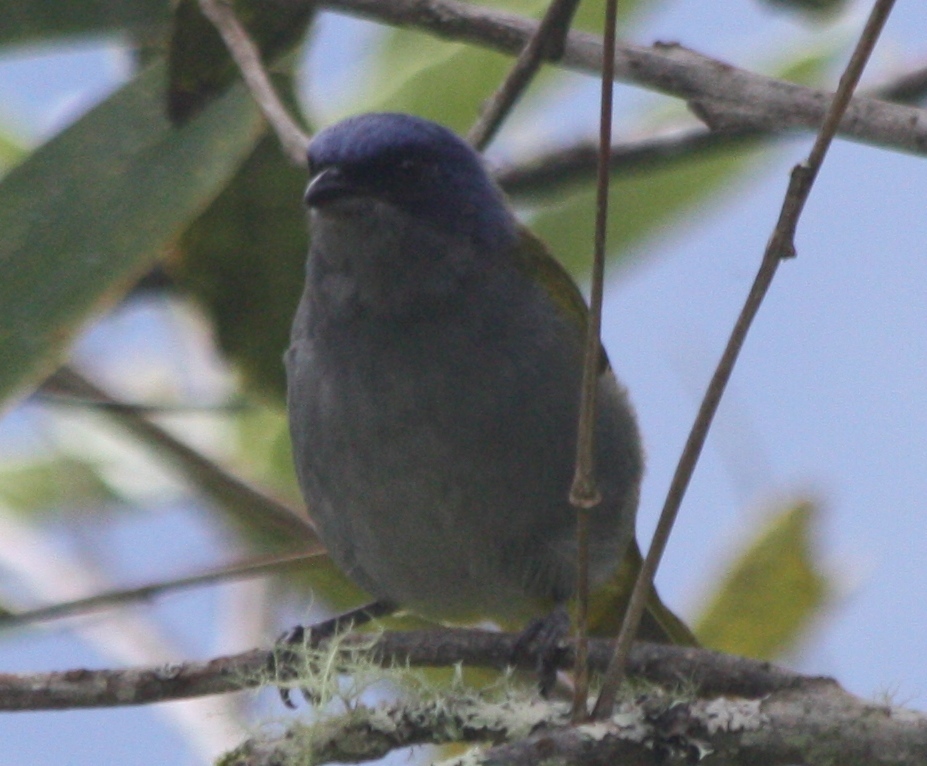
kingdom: Animalia
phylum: Chordata
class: Aves
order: Passeriformes
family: Thraupidae
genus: Sporathraupis
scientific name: Sporathraupis cyanocephala
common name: Blue-capped tanager
